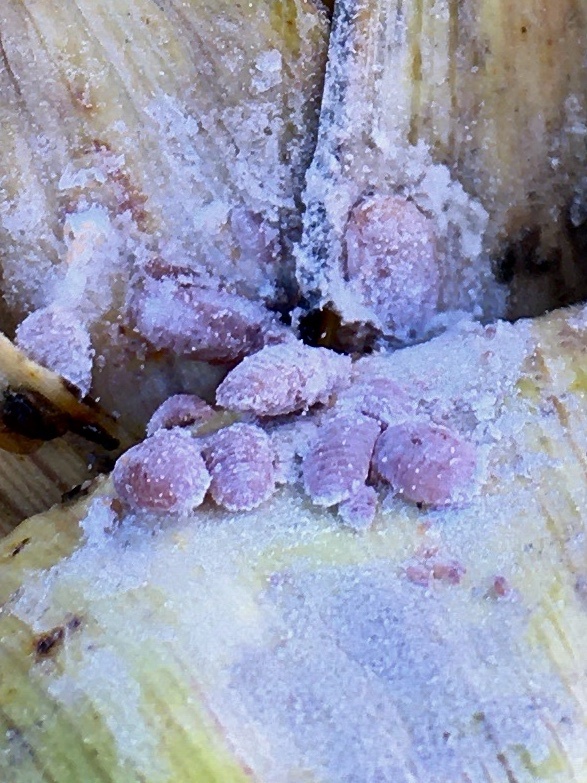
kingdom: Animalia
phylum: Arthropoda
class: Insecta
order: Hemiptera
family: Pseudococcidae
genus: Balanococcus
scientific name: Balanococcus cordylinidis
